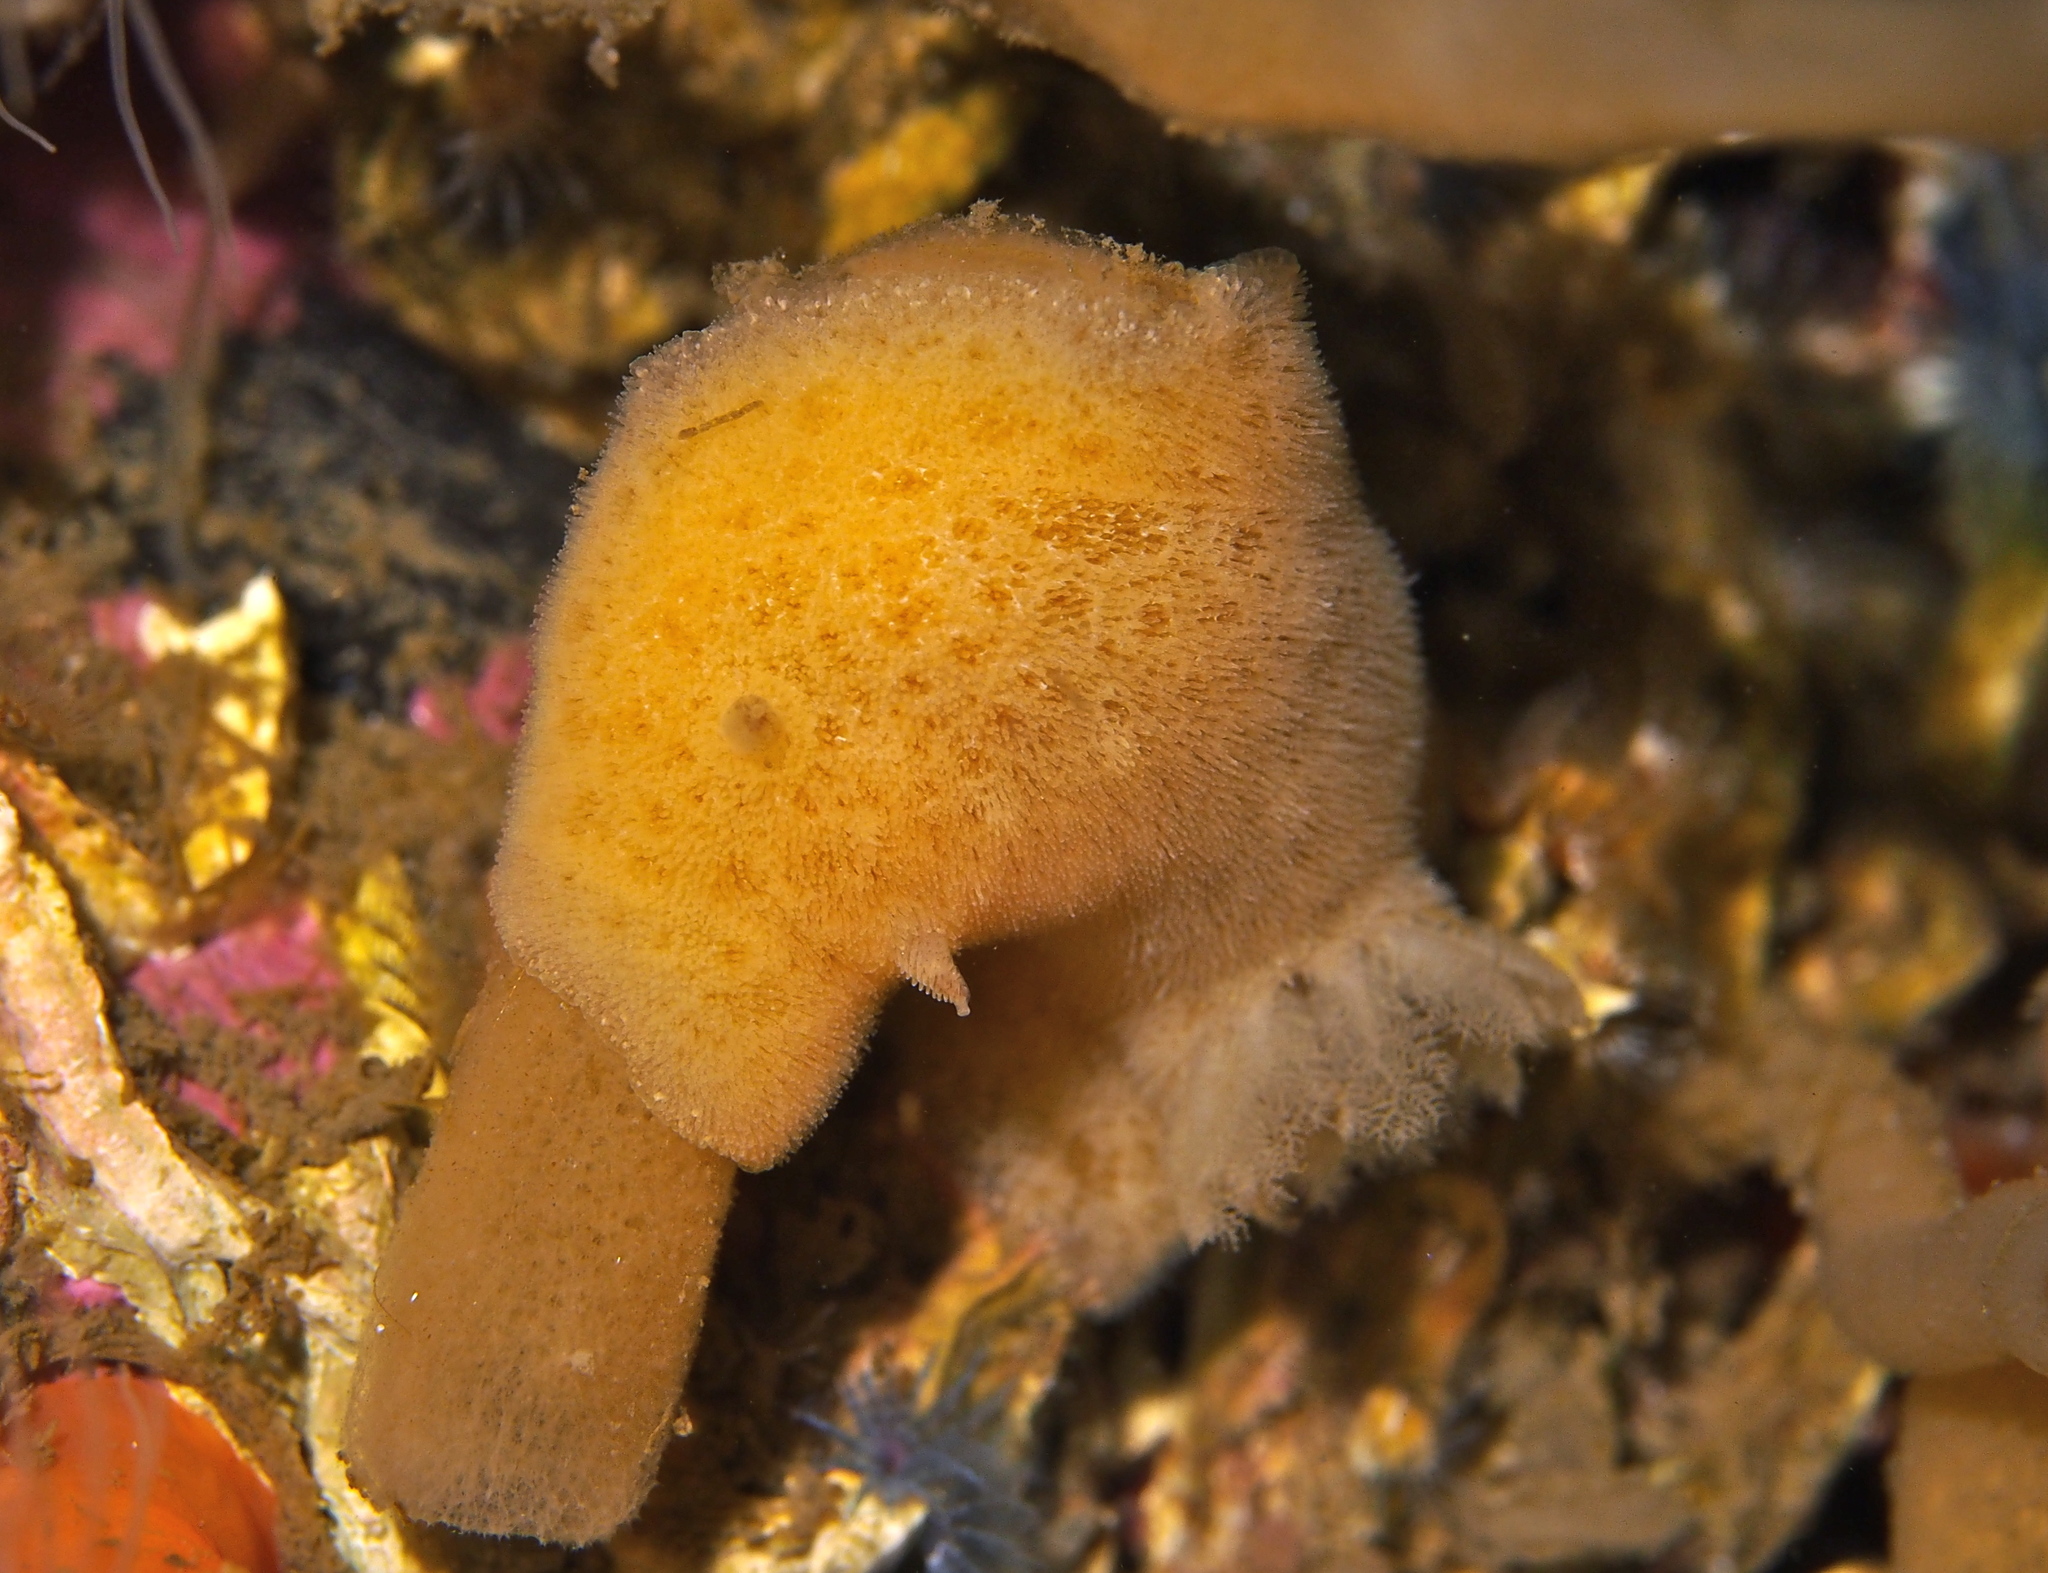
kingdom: Animalia
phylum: Mollusca
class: Gastropoda
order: Nudibranchia
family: Discodorididae
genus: Jorunna
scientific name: Jorunna tomentosa
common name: Grey sea slug
